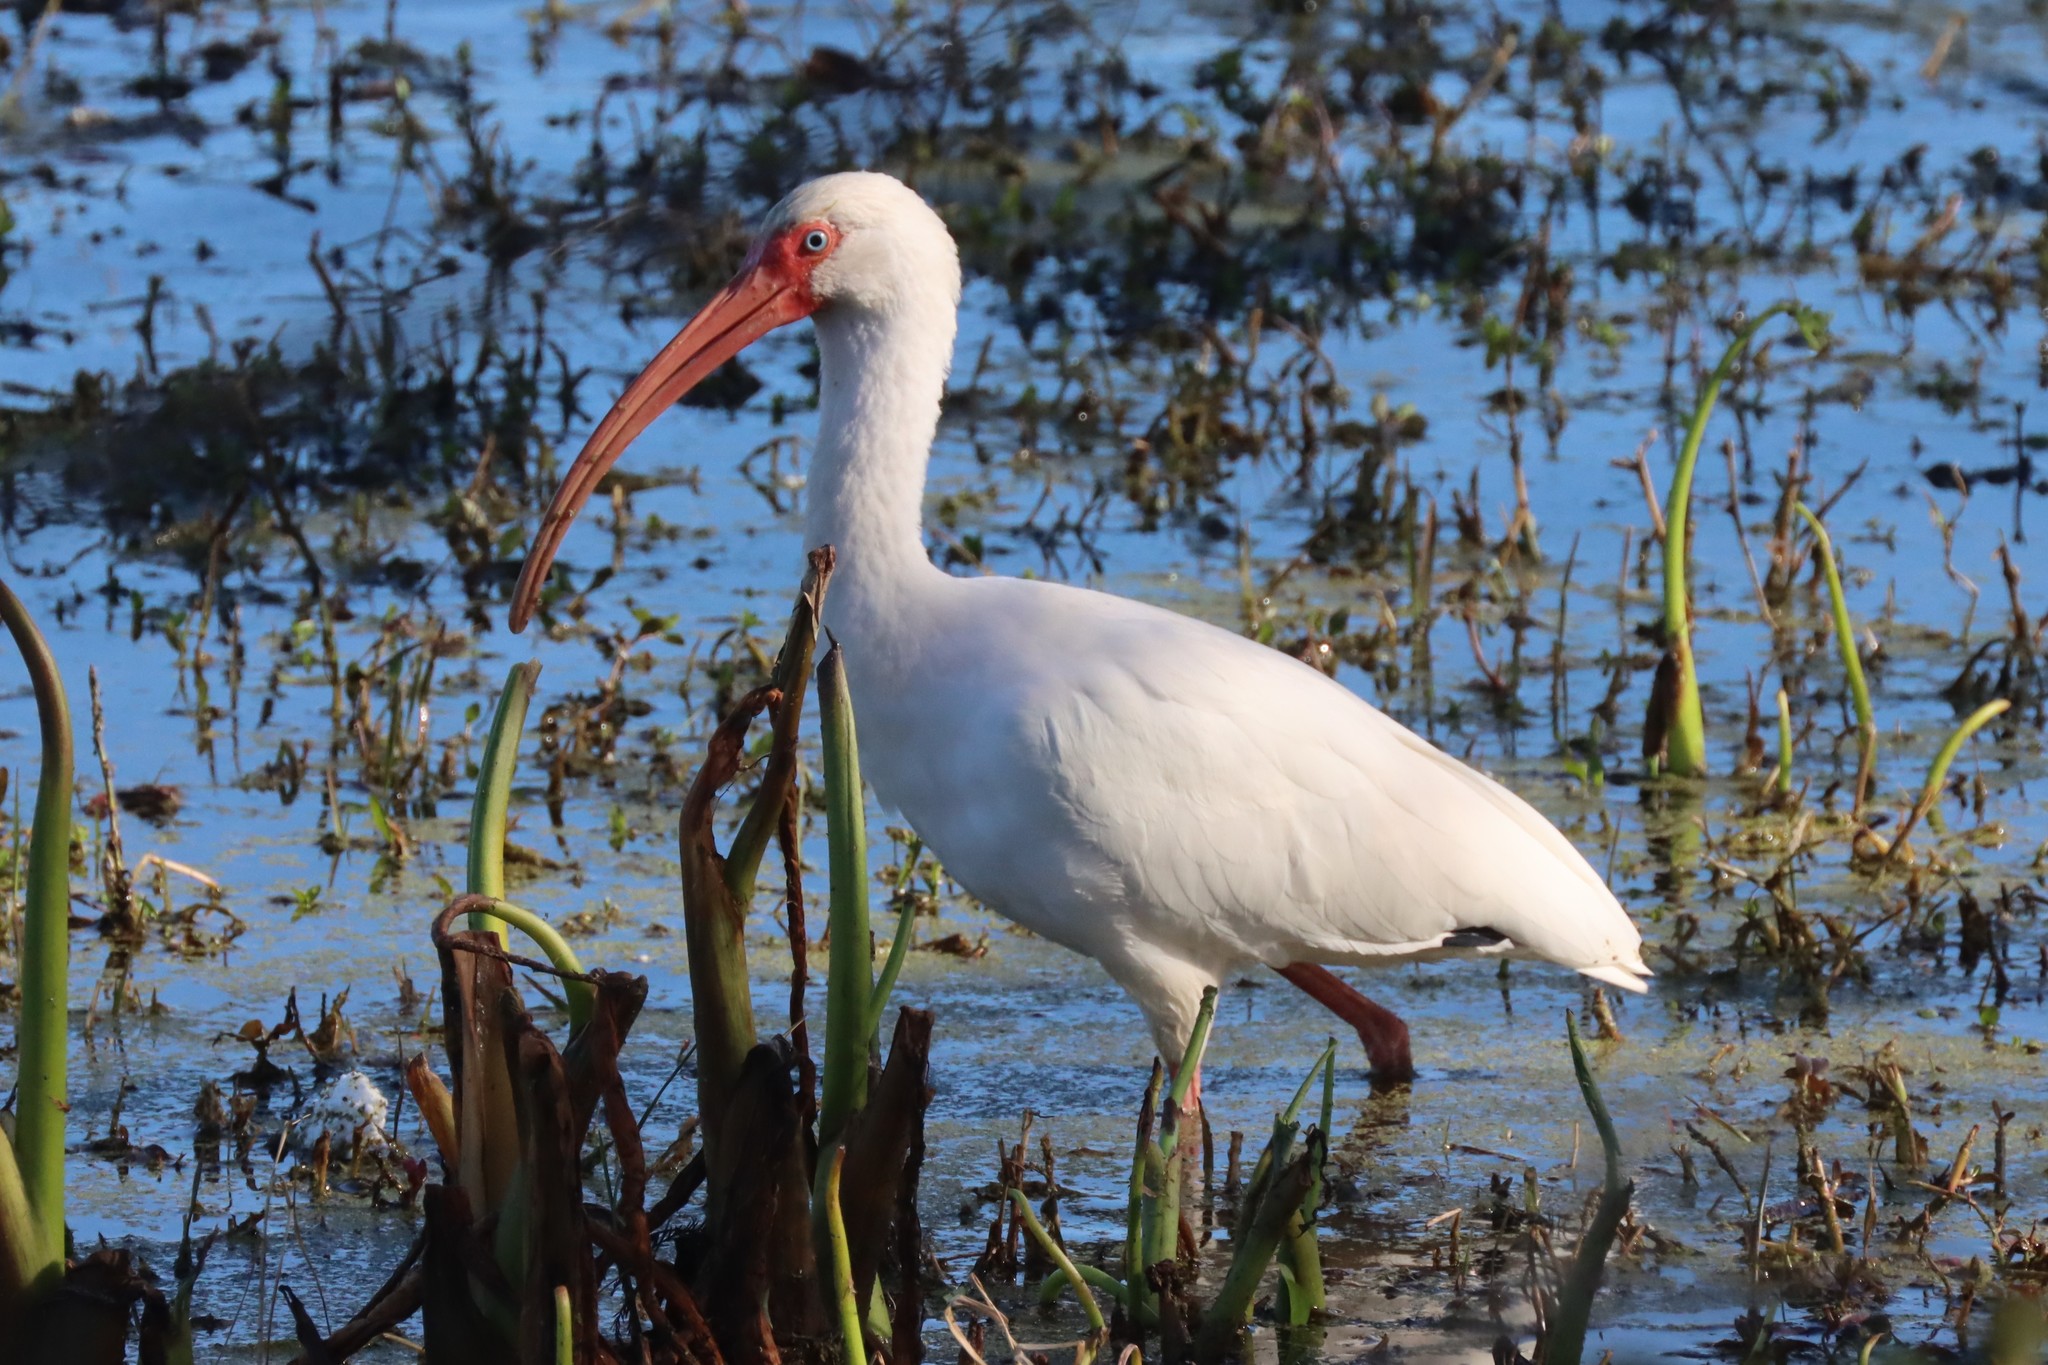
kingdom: Animalia
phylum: Chordata
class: Aves
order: Pelecaniformes
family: Threskiornithidae
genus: Eudocimus
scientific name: Eudocimus albus
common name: White ibis
